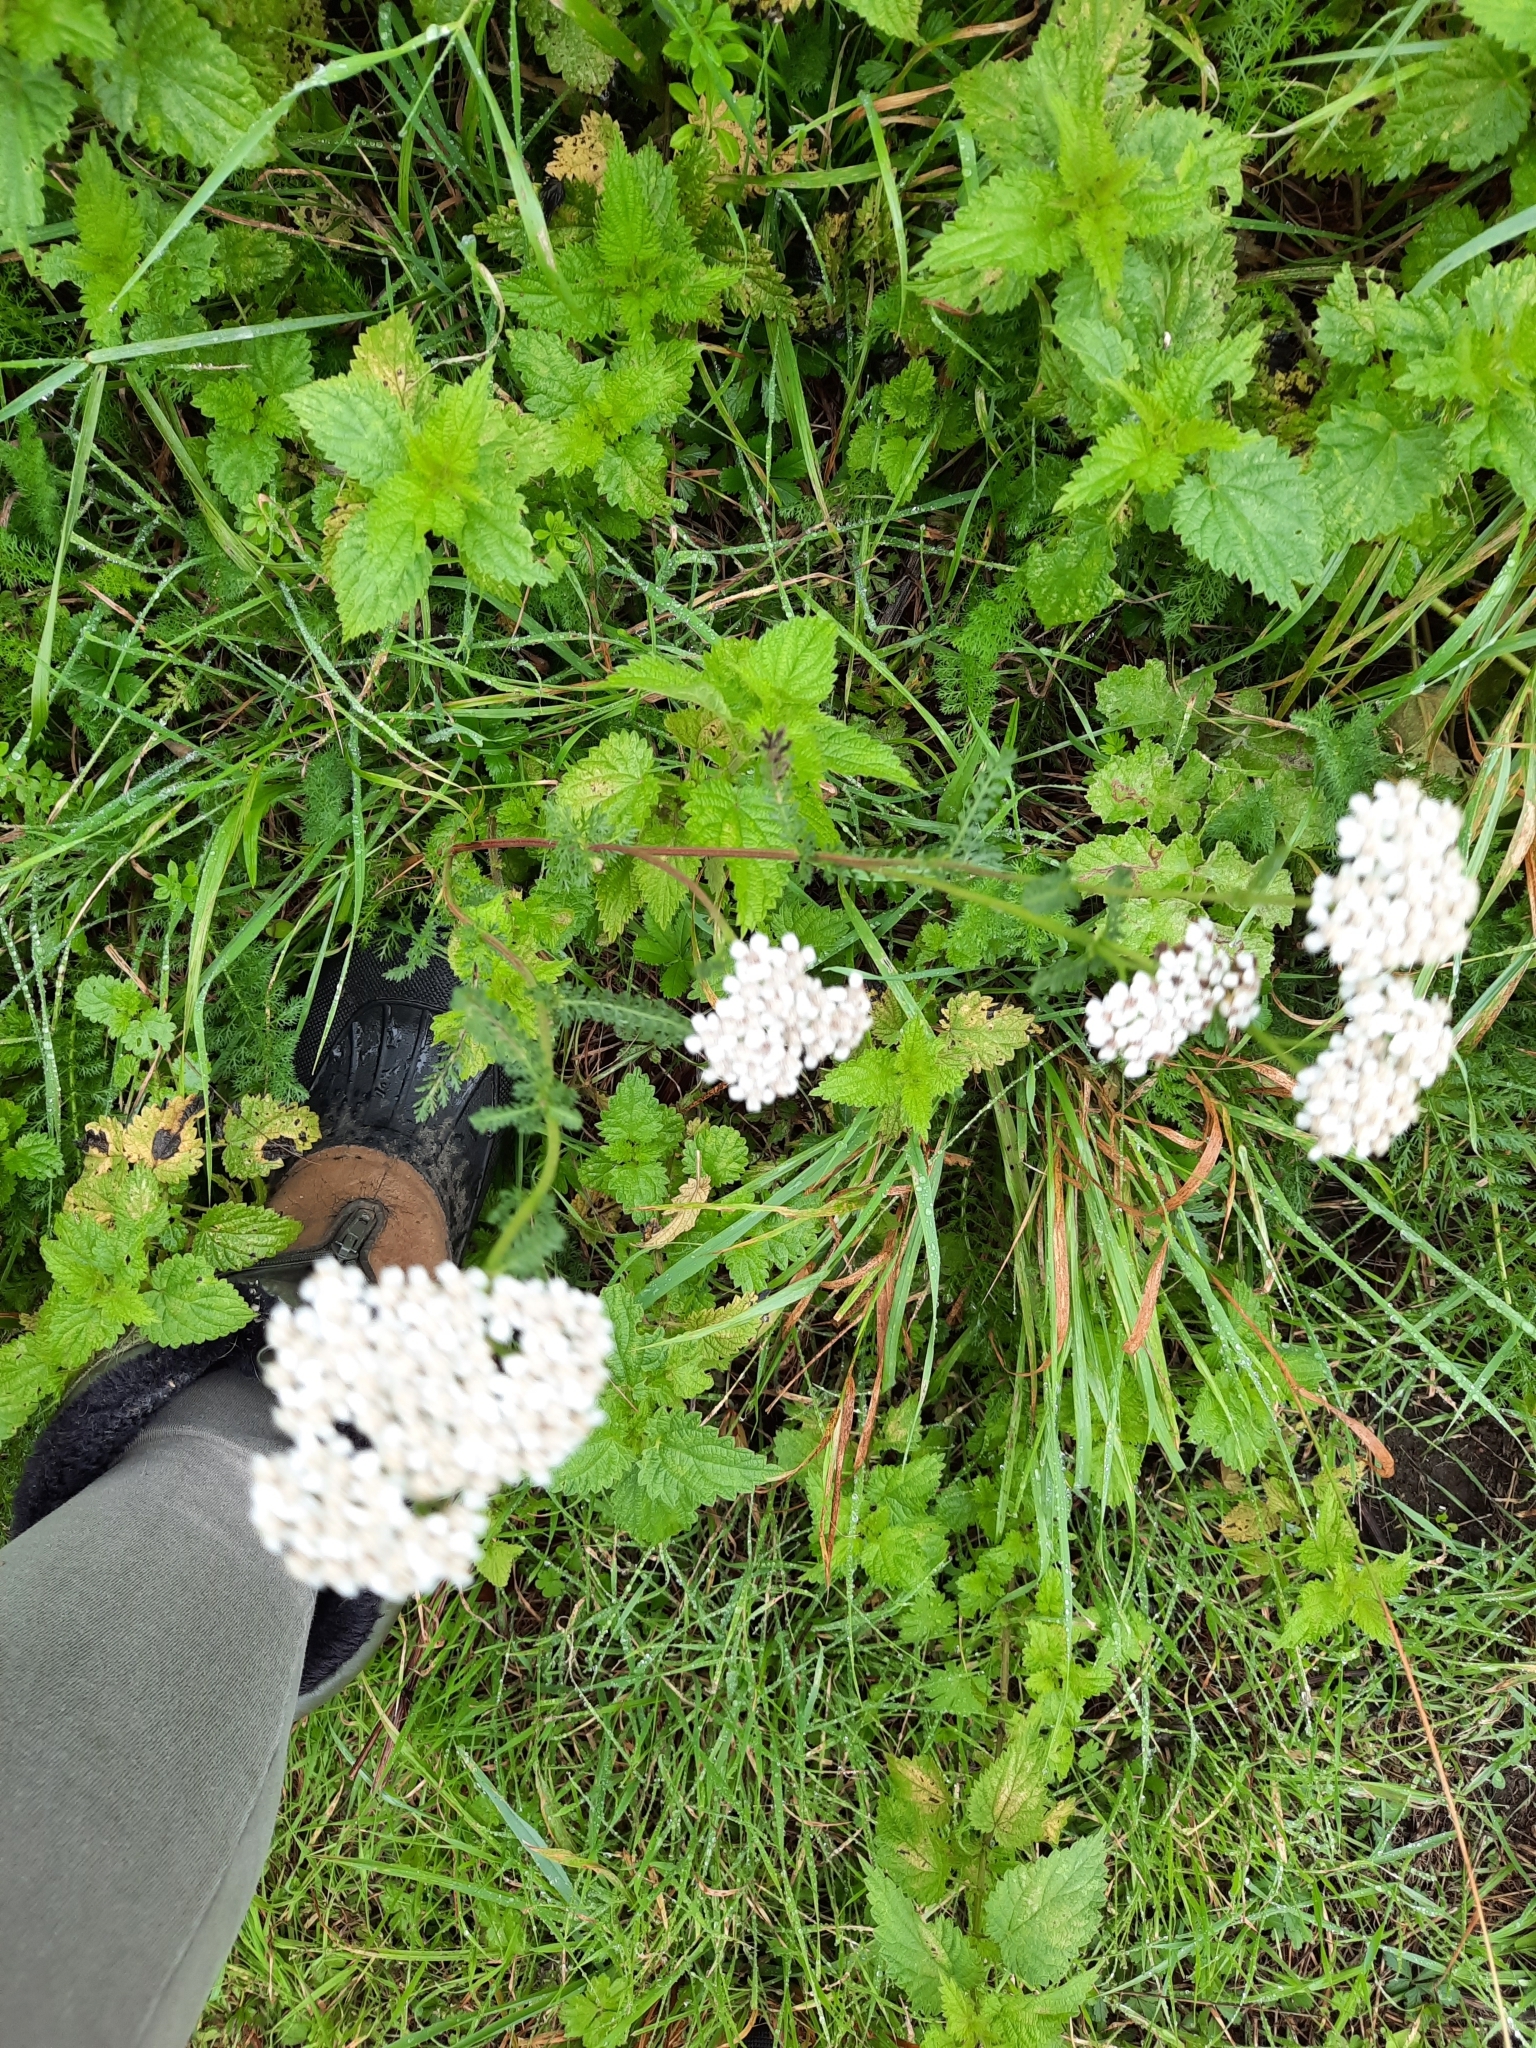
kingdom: Plantae
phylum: Tracheophyta
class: Magnoliopsida
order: Asterales
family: Asteraceae
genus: Achillea
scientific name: Achillea millefolium
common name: Yarrow
